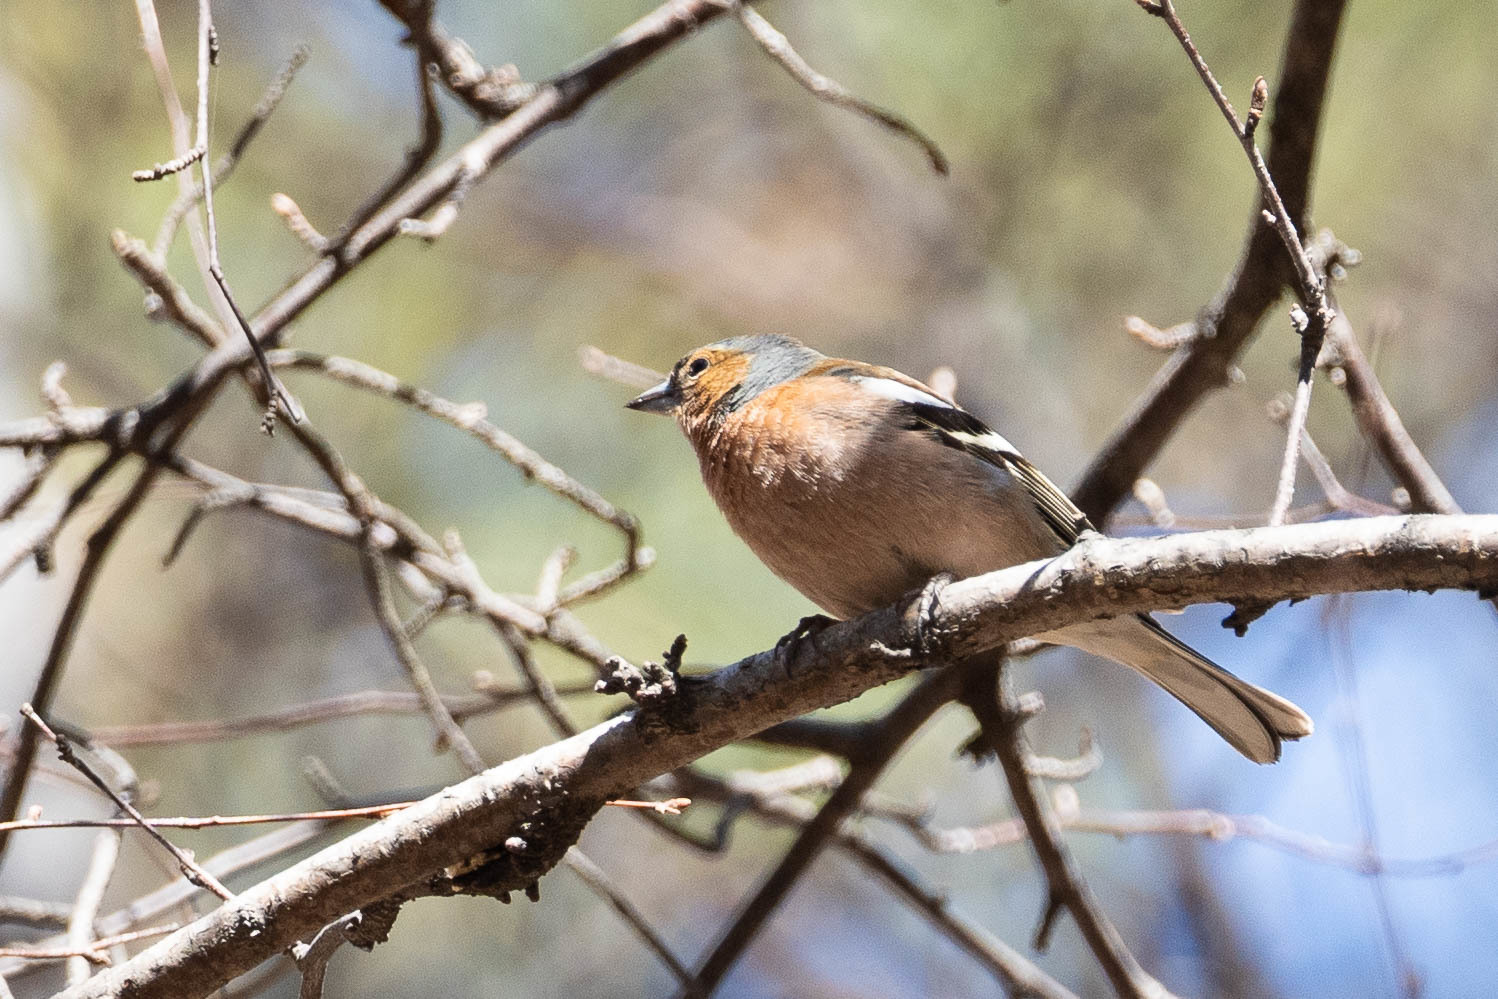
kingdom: Animalia
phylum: Chordata
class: Aves
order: Passeriformes
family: Fringillidae
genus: Fringilla
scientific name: Fringilla coelebs
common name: Common chaffinch
